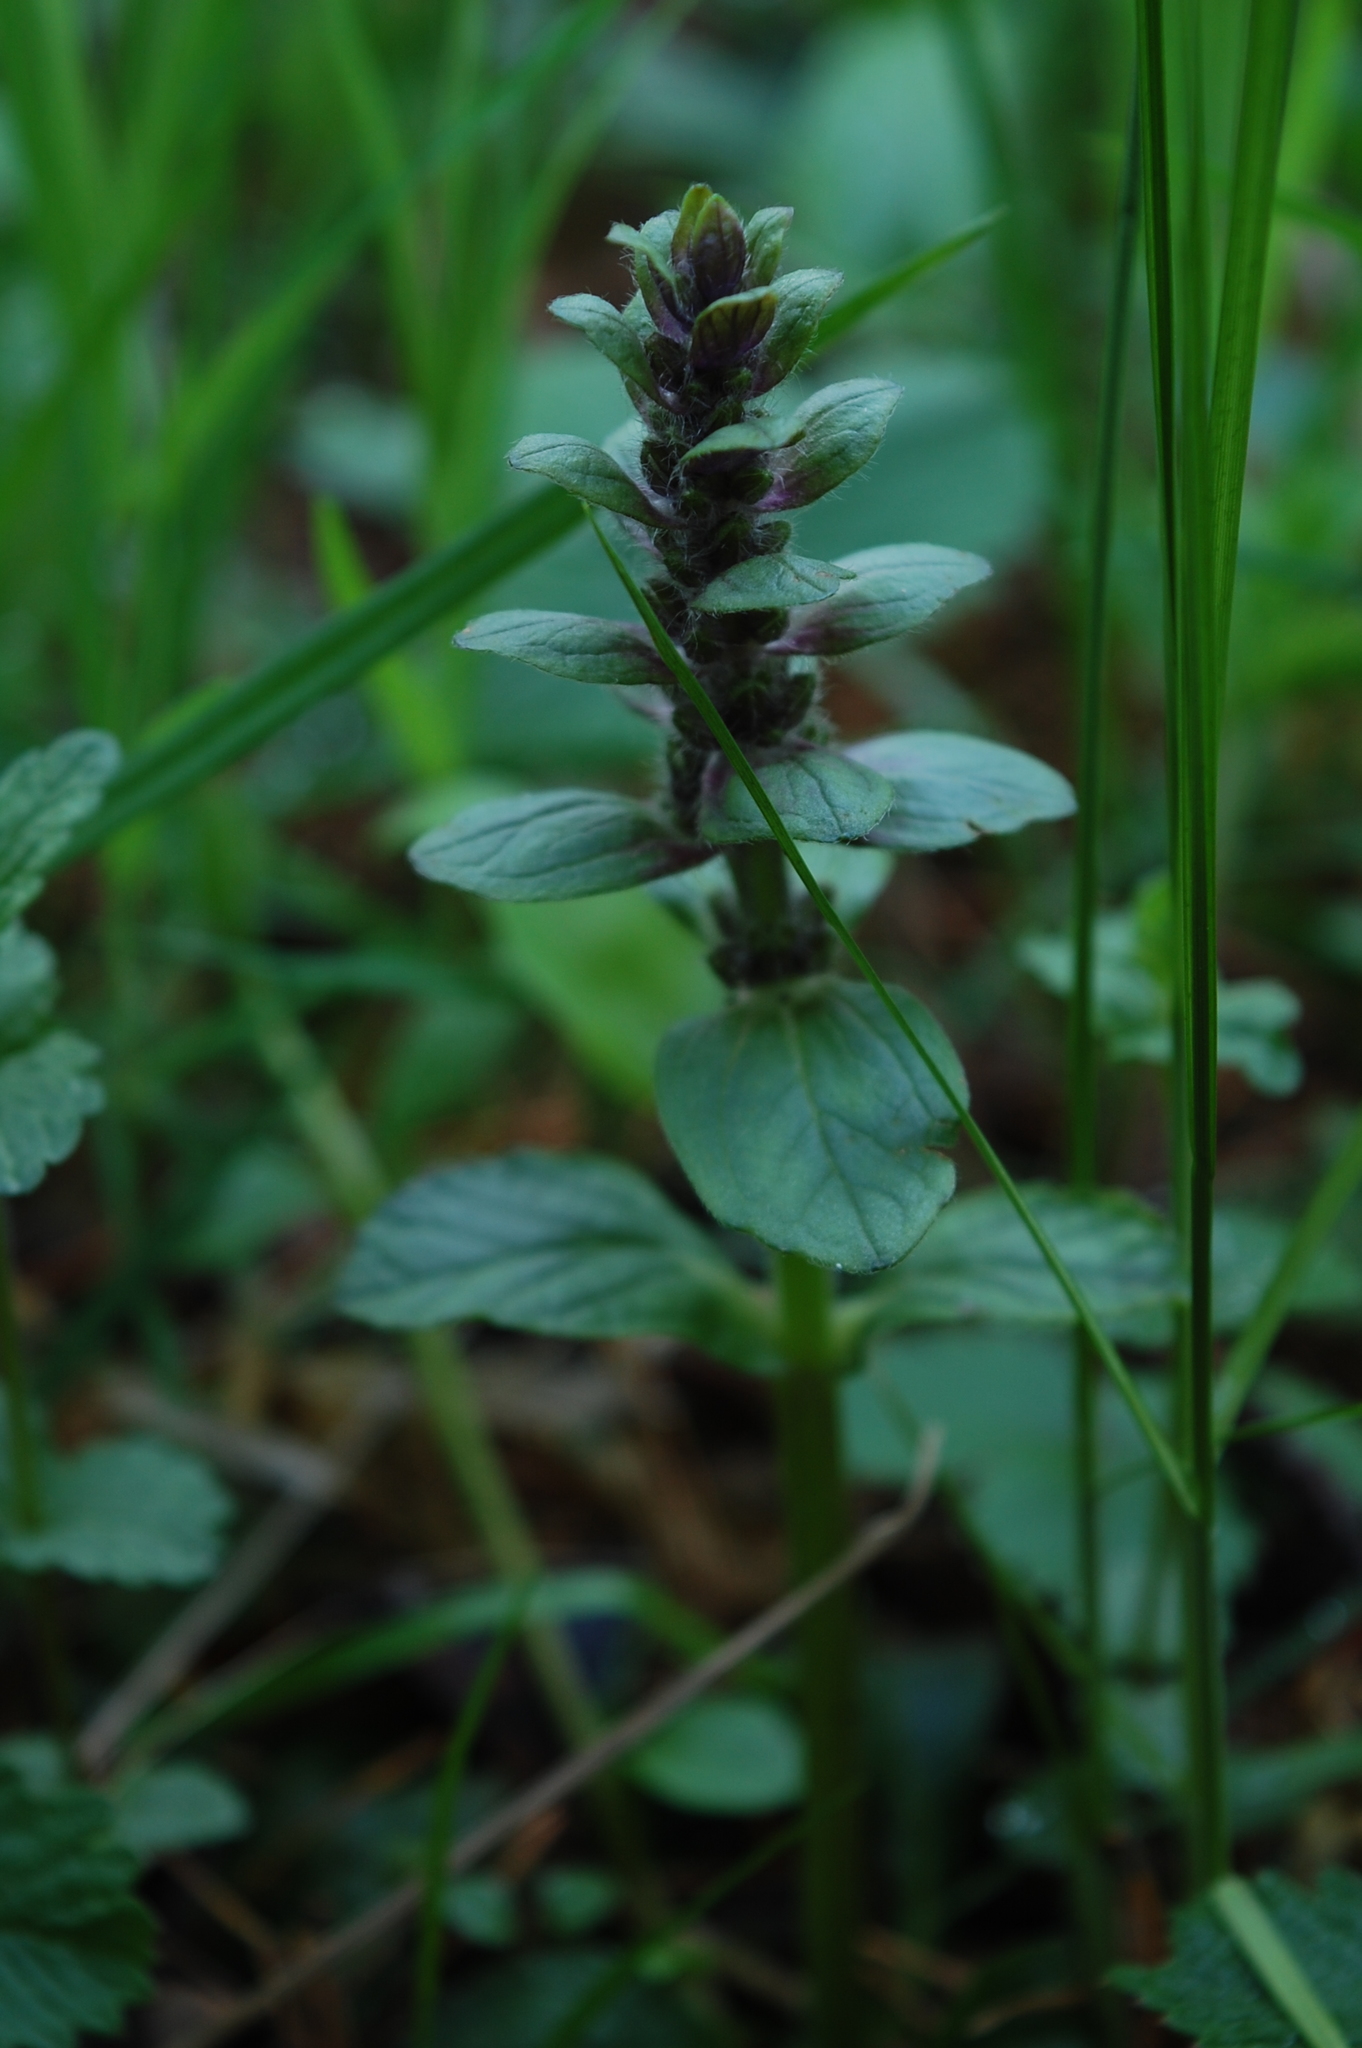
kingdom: Plantae
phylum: Tracheophyta
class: Magnoliopsida
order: Lamiales
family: Lamiaceae
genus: Ajuga
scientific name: Ajuga reptans
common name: Bugle
